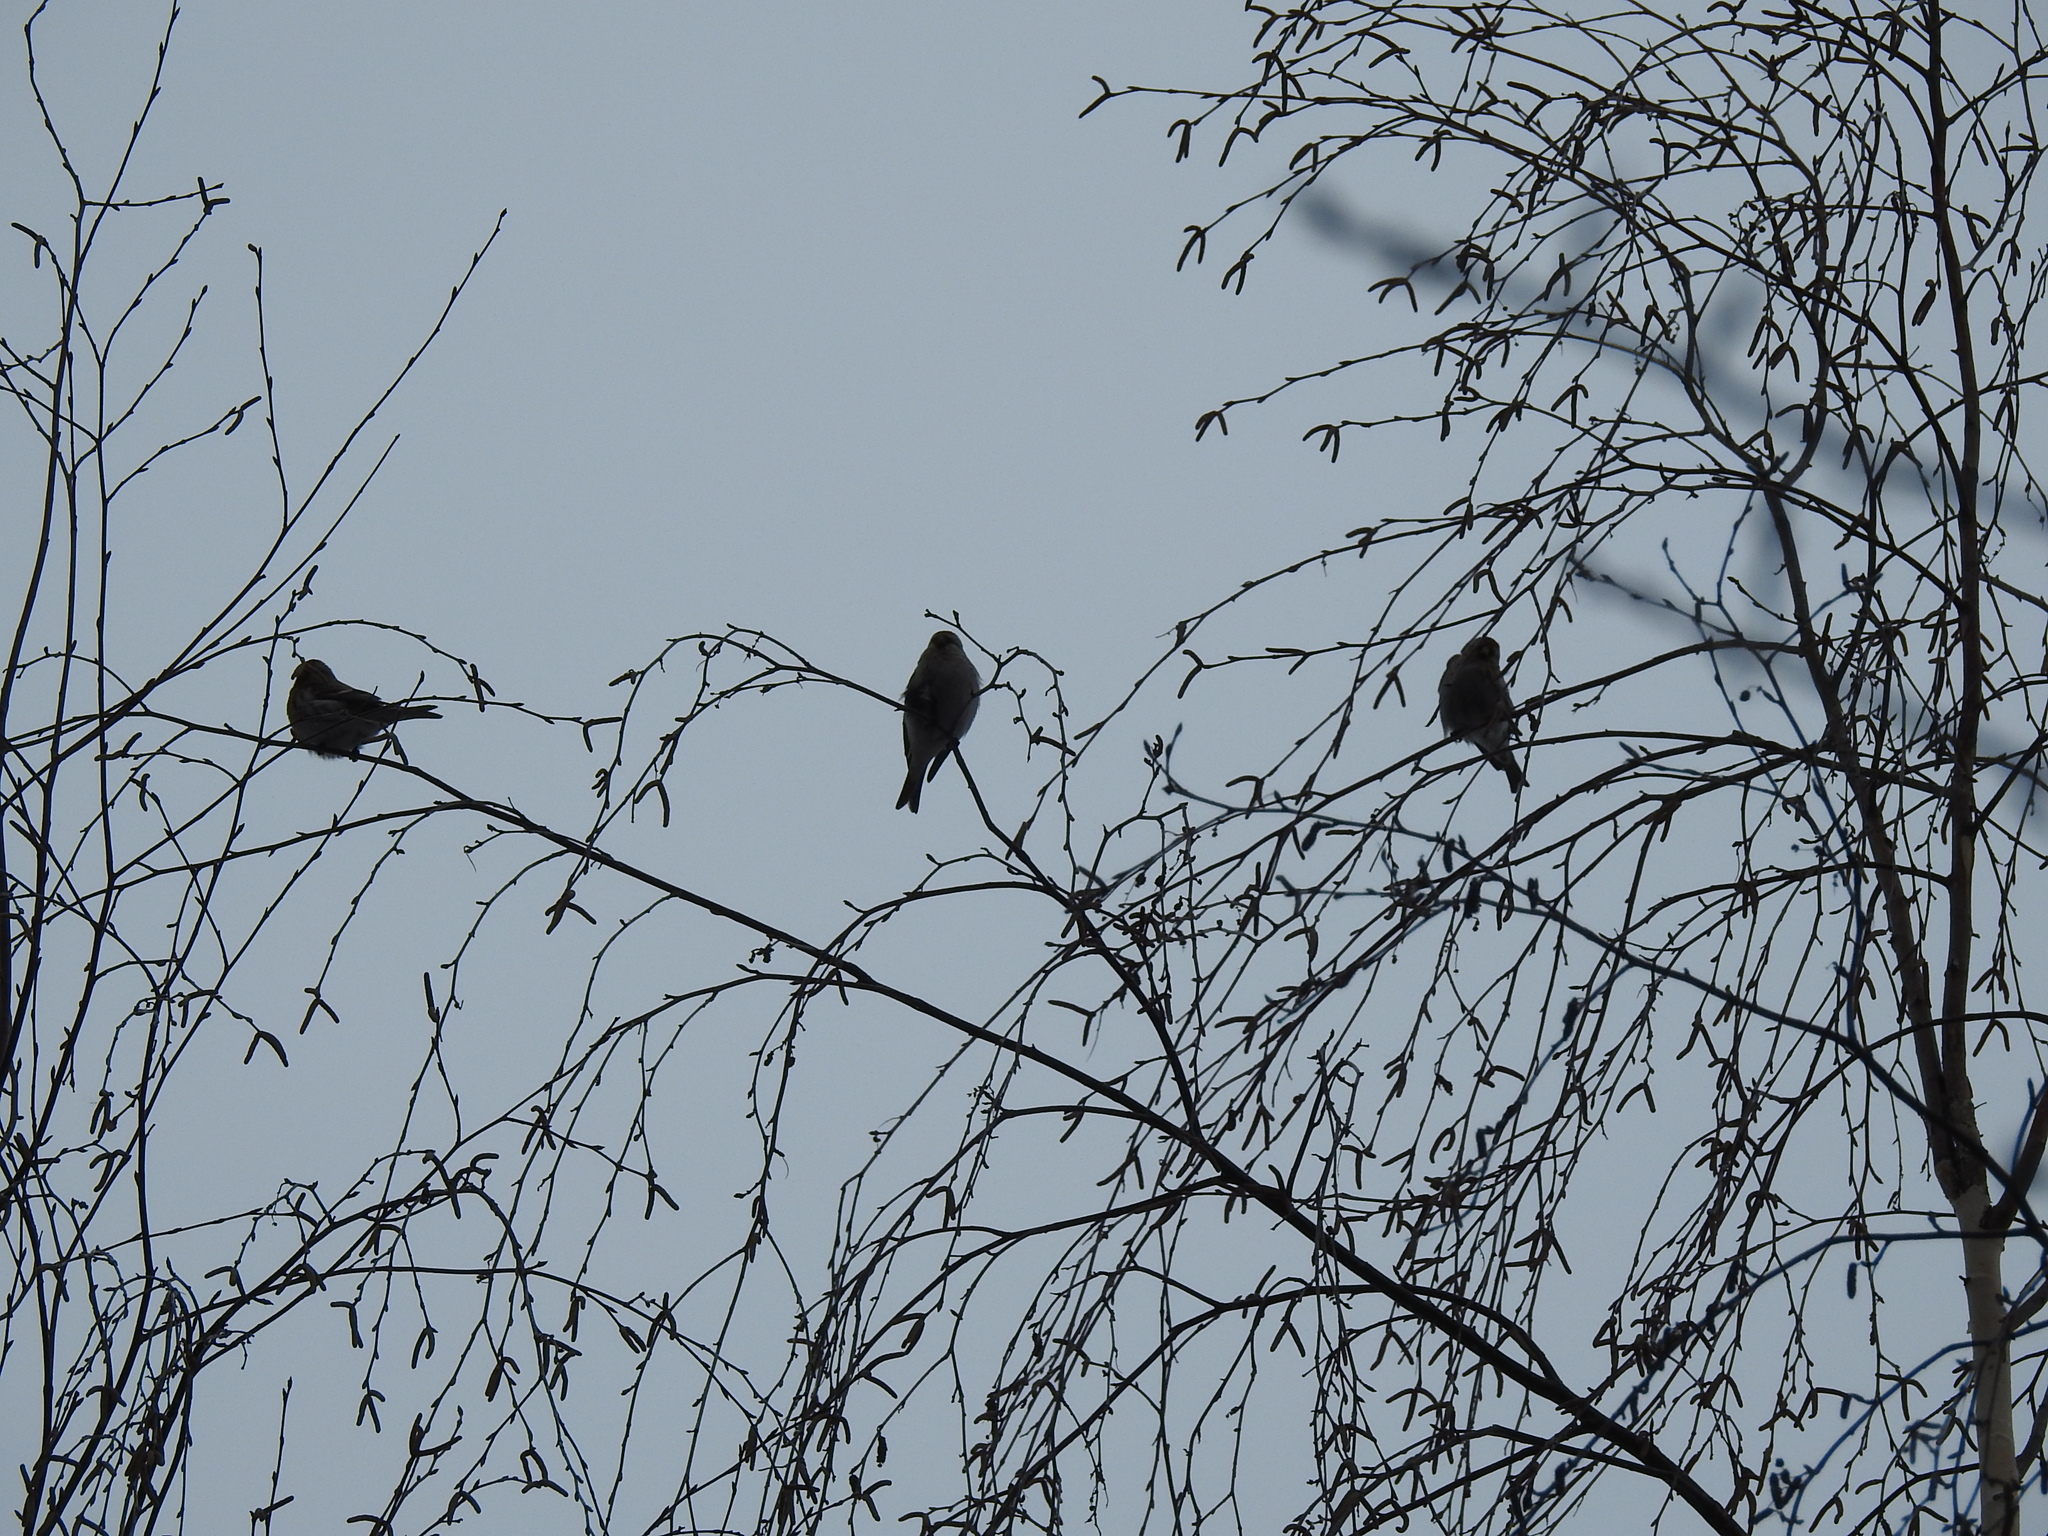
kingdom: Animalia
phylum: Chordata
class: Aves
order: Passeriformes
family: Fringillidae
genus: Acanthis
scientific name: Acanthis flammea
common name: Common redpoll
